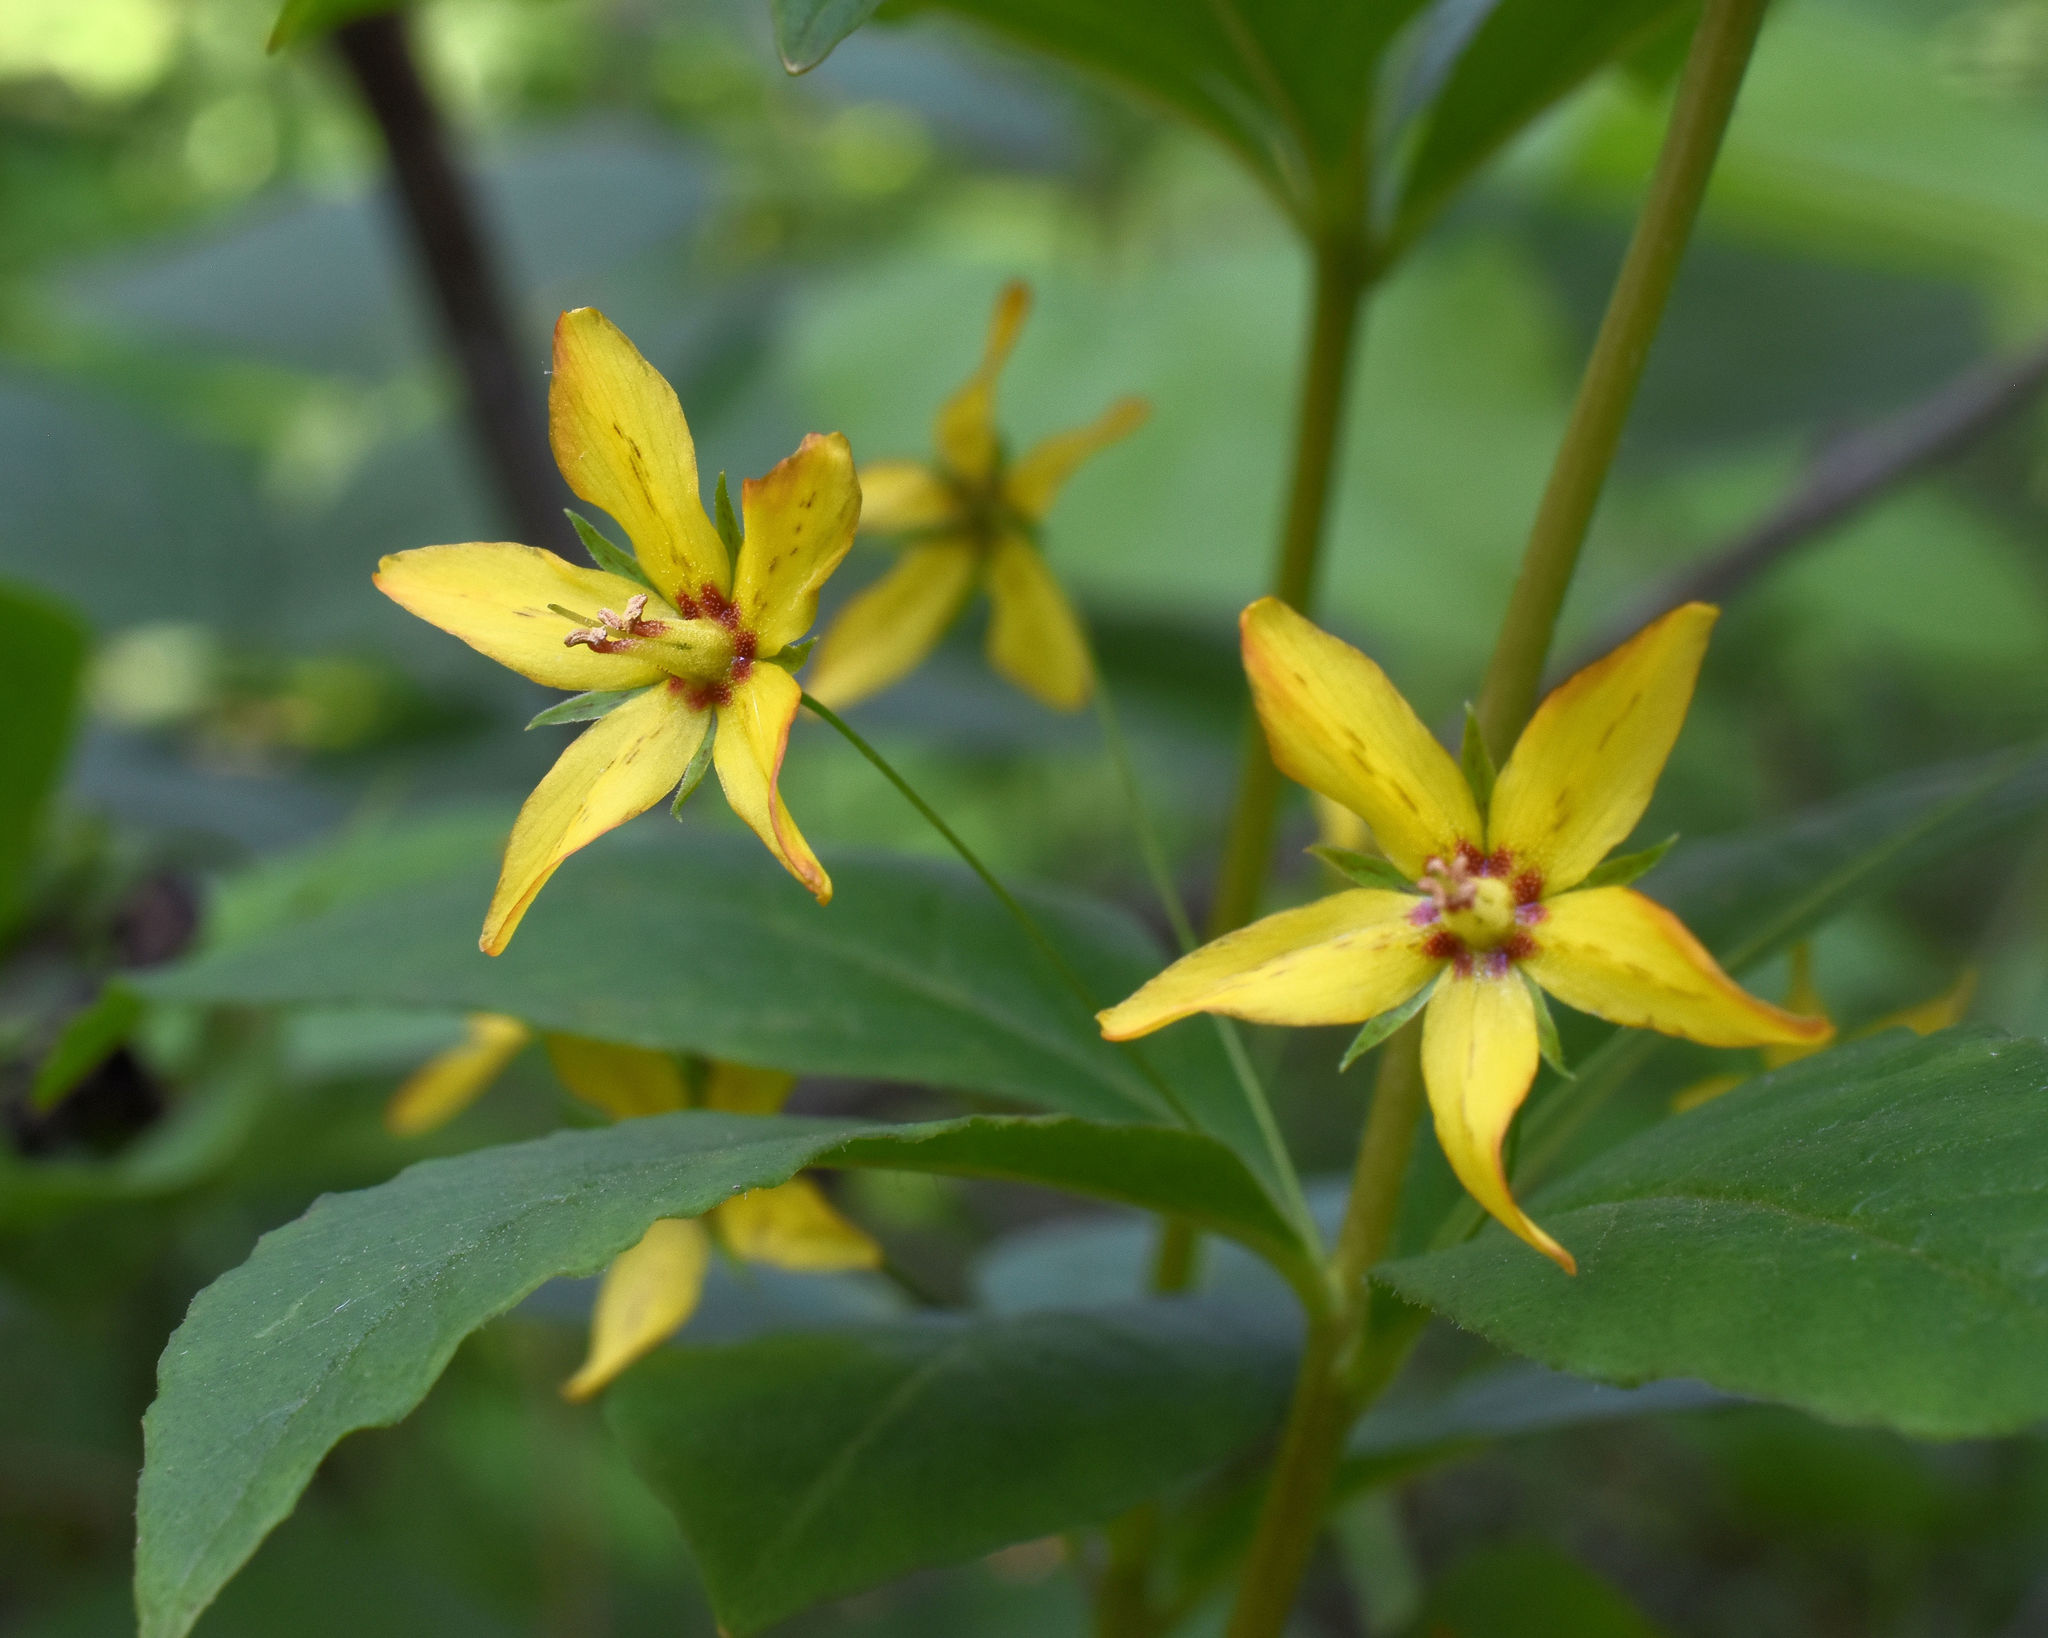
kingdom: Plantae
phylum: Tracheophyta
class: Magnoliopsida
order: Ericales
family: Primulaceae
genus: Lysimachia
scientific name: Lysimachia quadrifolia
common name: Whorled loosestrife
